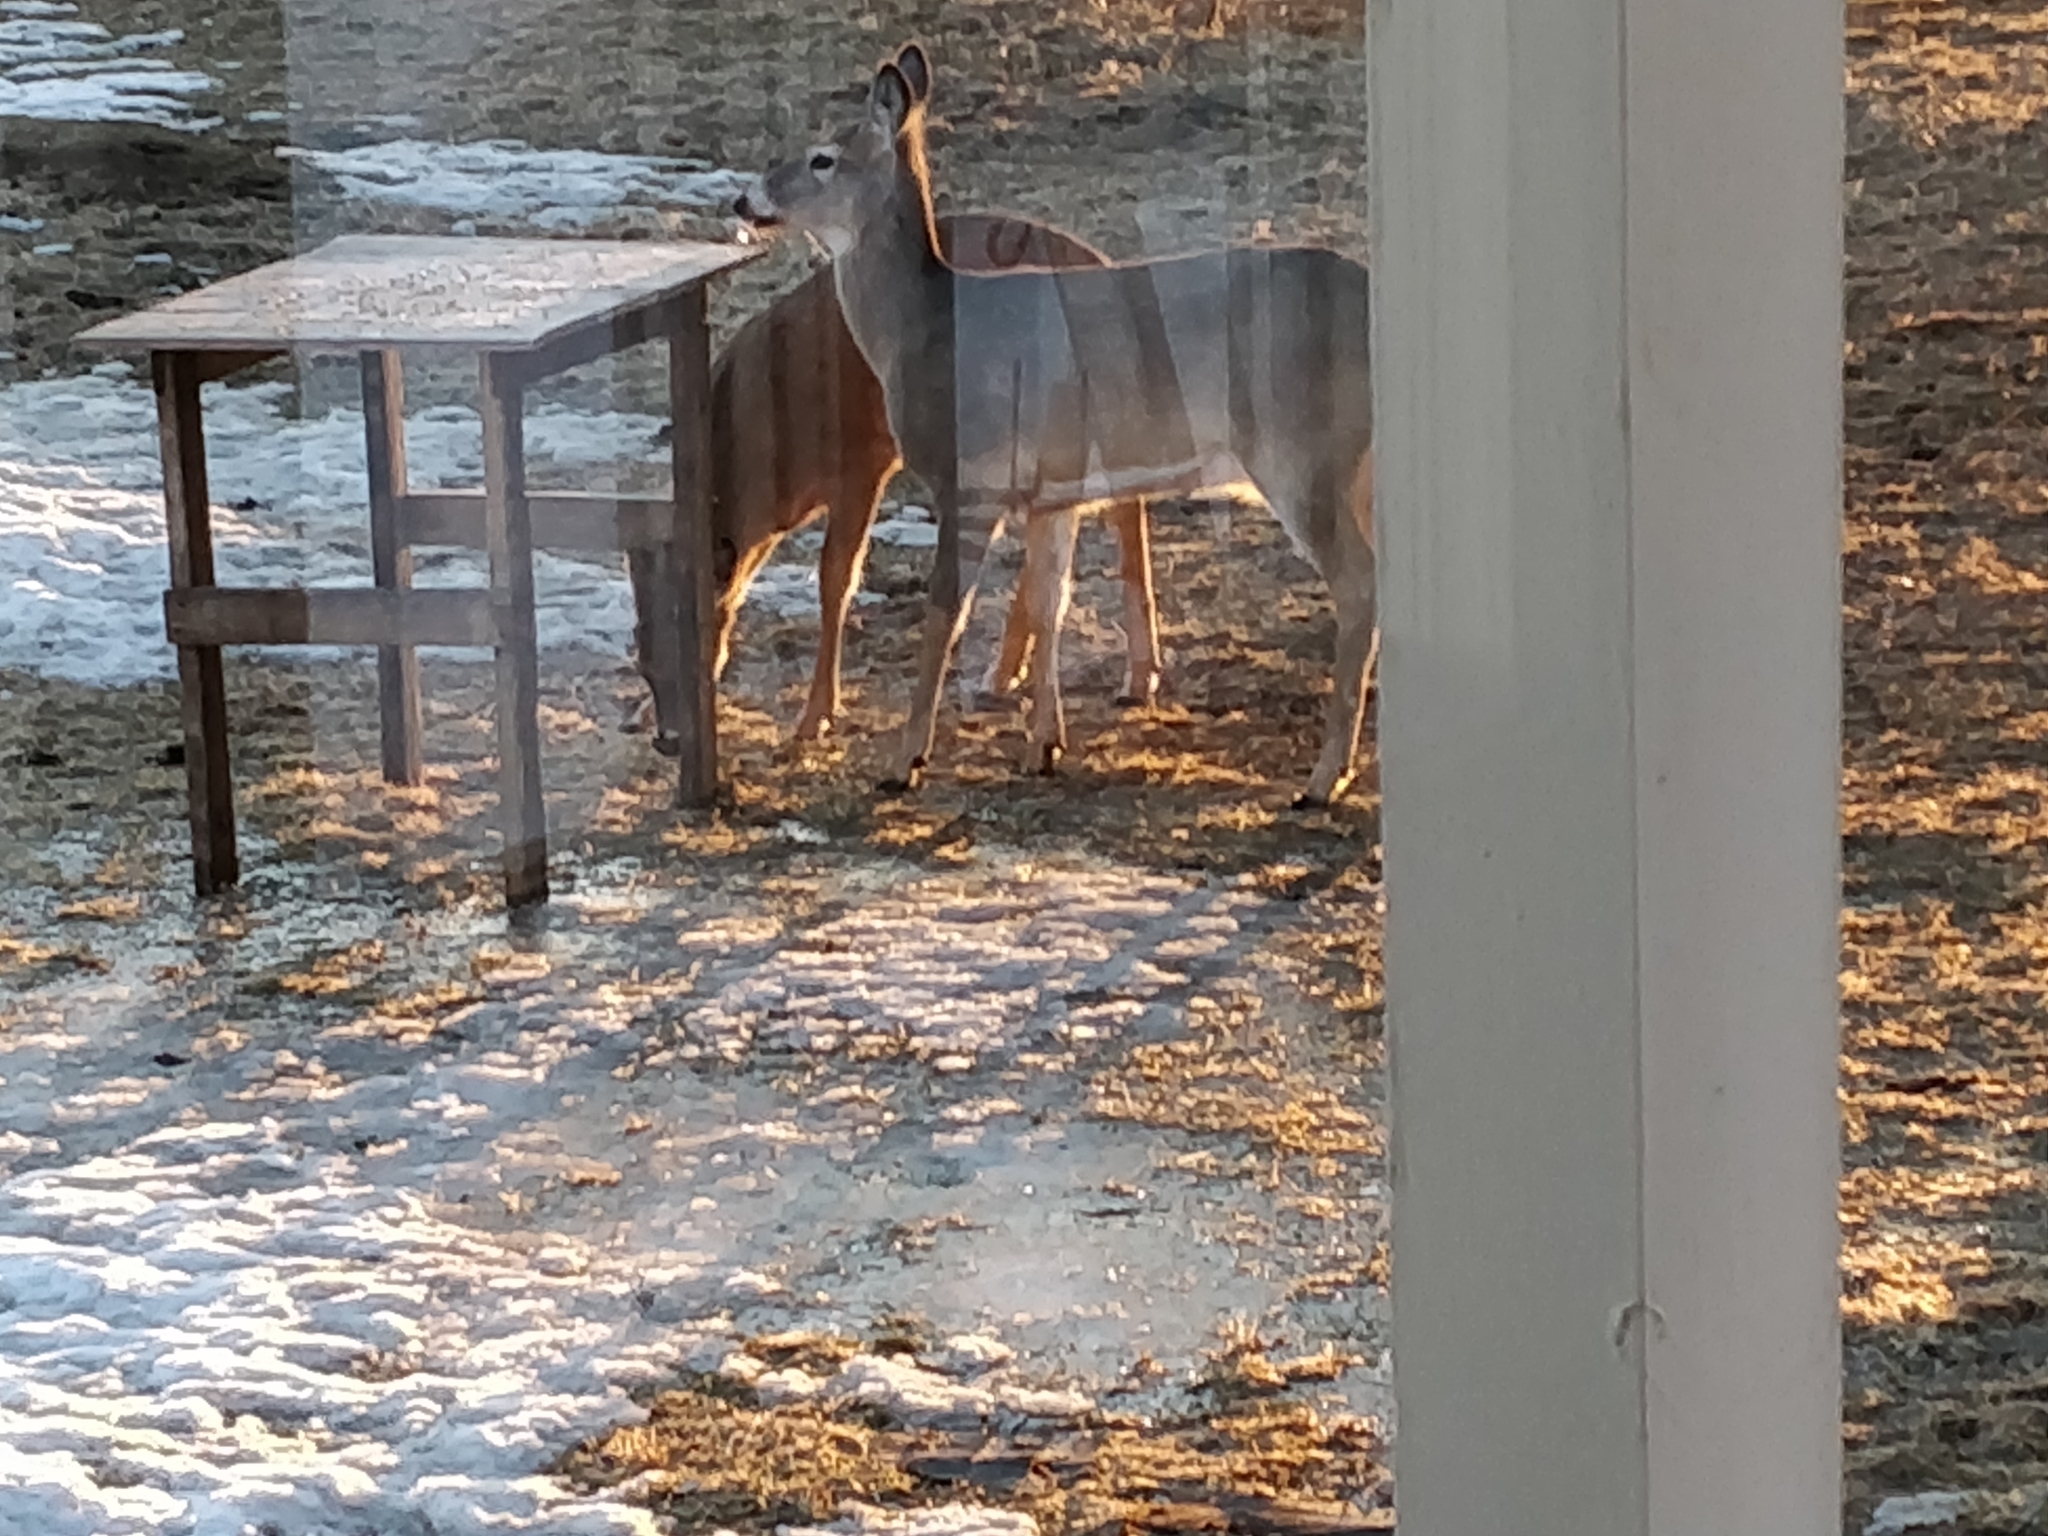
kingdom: Animalia
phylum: Chordata
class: Mammalia
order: Artiodactyla
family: Cervidae
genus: Odocoileus
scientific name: Odocoileus virginianus
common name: White-tailed deer
